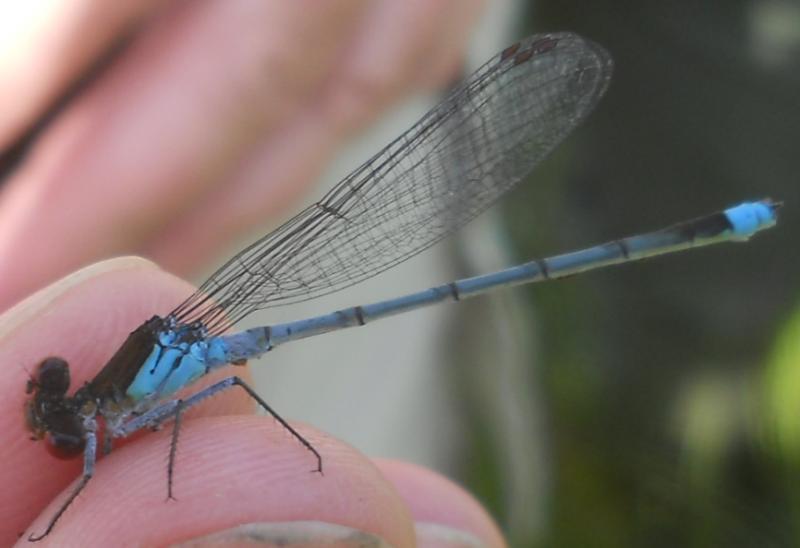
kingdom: Animalia
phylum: Arthropoda
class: Insecta
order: Odonata
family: Coenagrionidae
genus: Erythromma
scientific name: Erythromma najas
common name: Red-eyed damselfly
